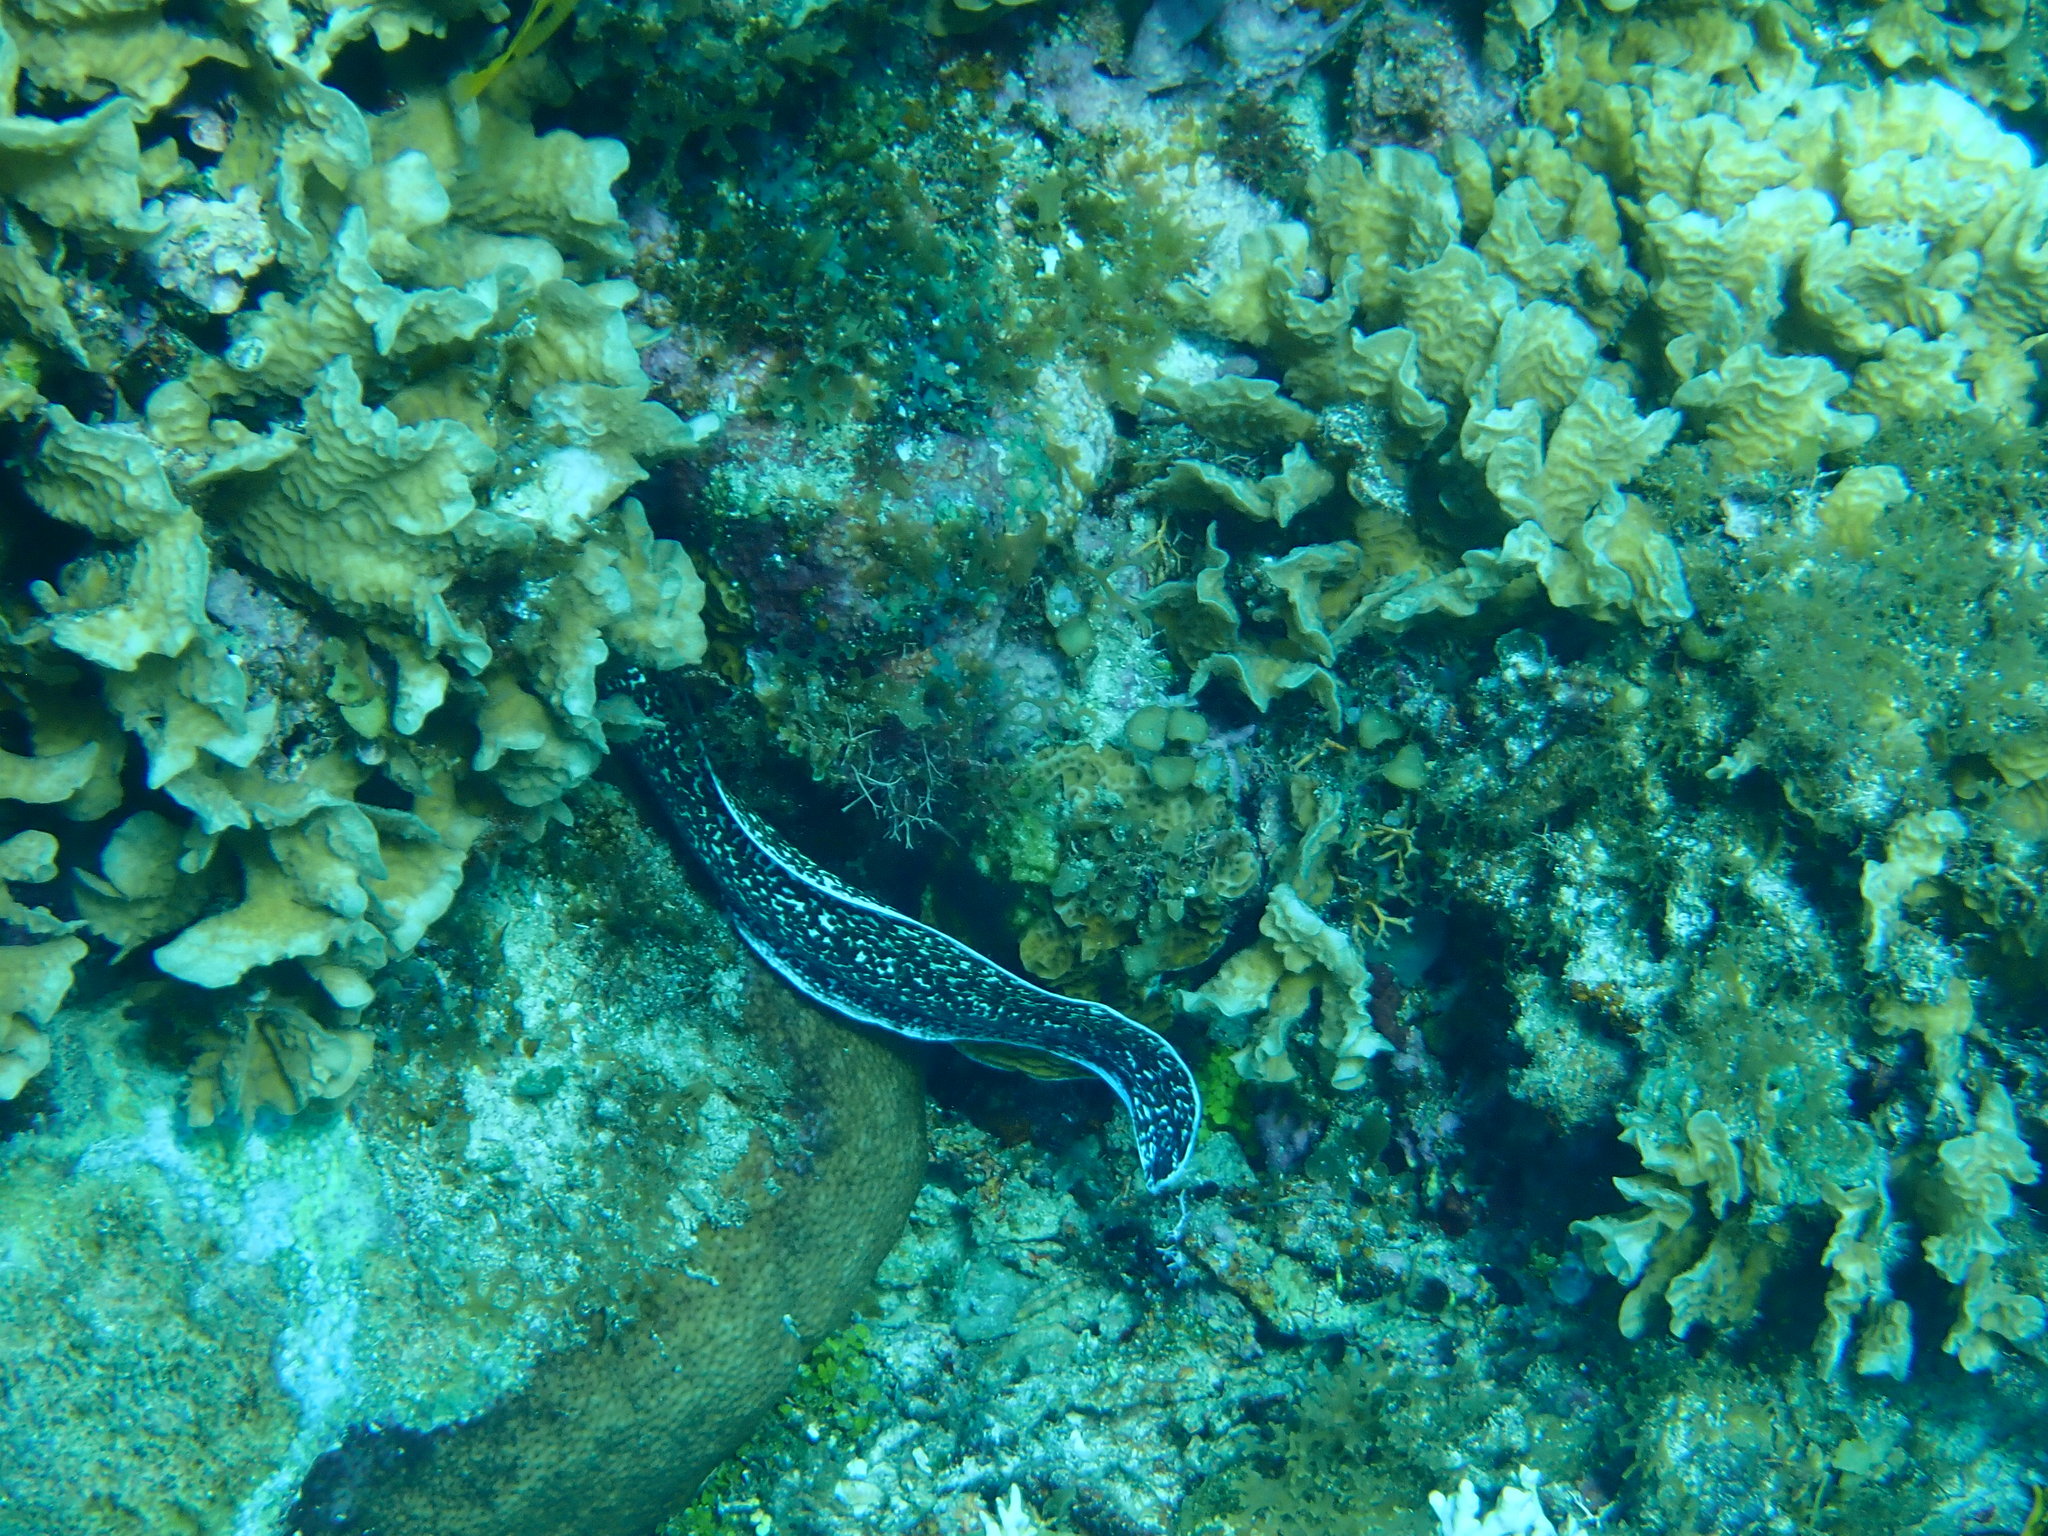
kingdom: Animalia
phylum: Chordata
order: Anguilliformes
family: Muraenidae
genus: Gymnothorax
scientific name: Gymnothorax moringa
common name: Spotted moray
